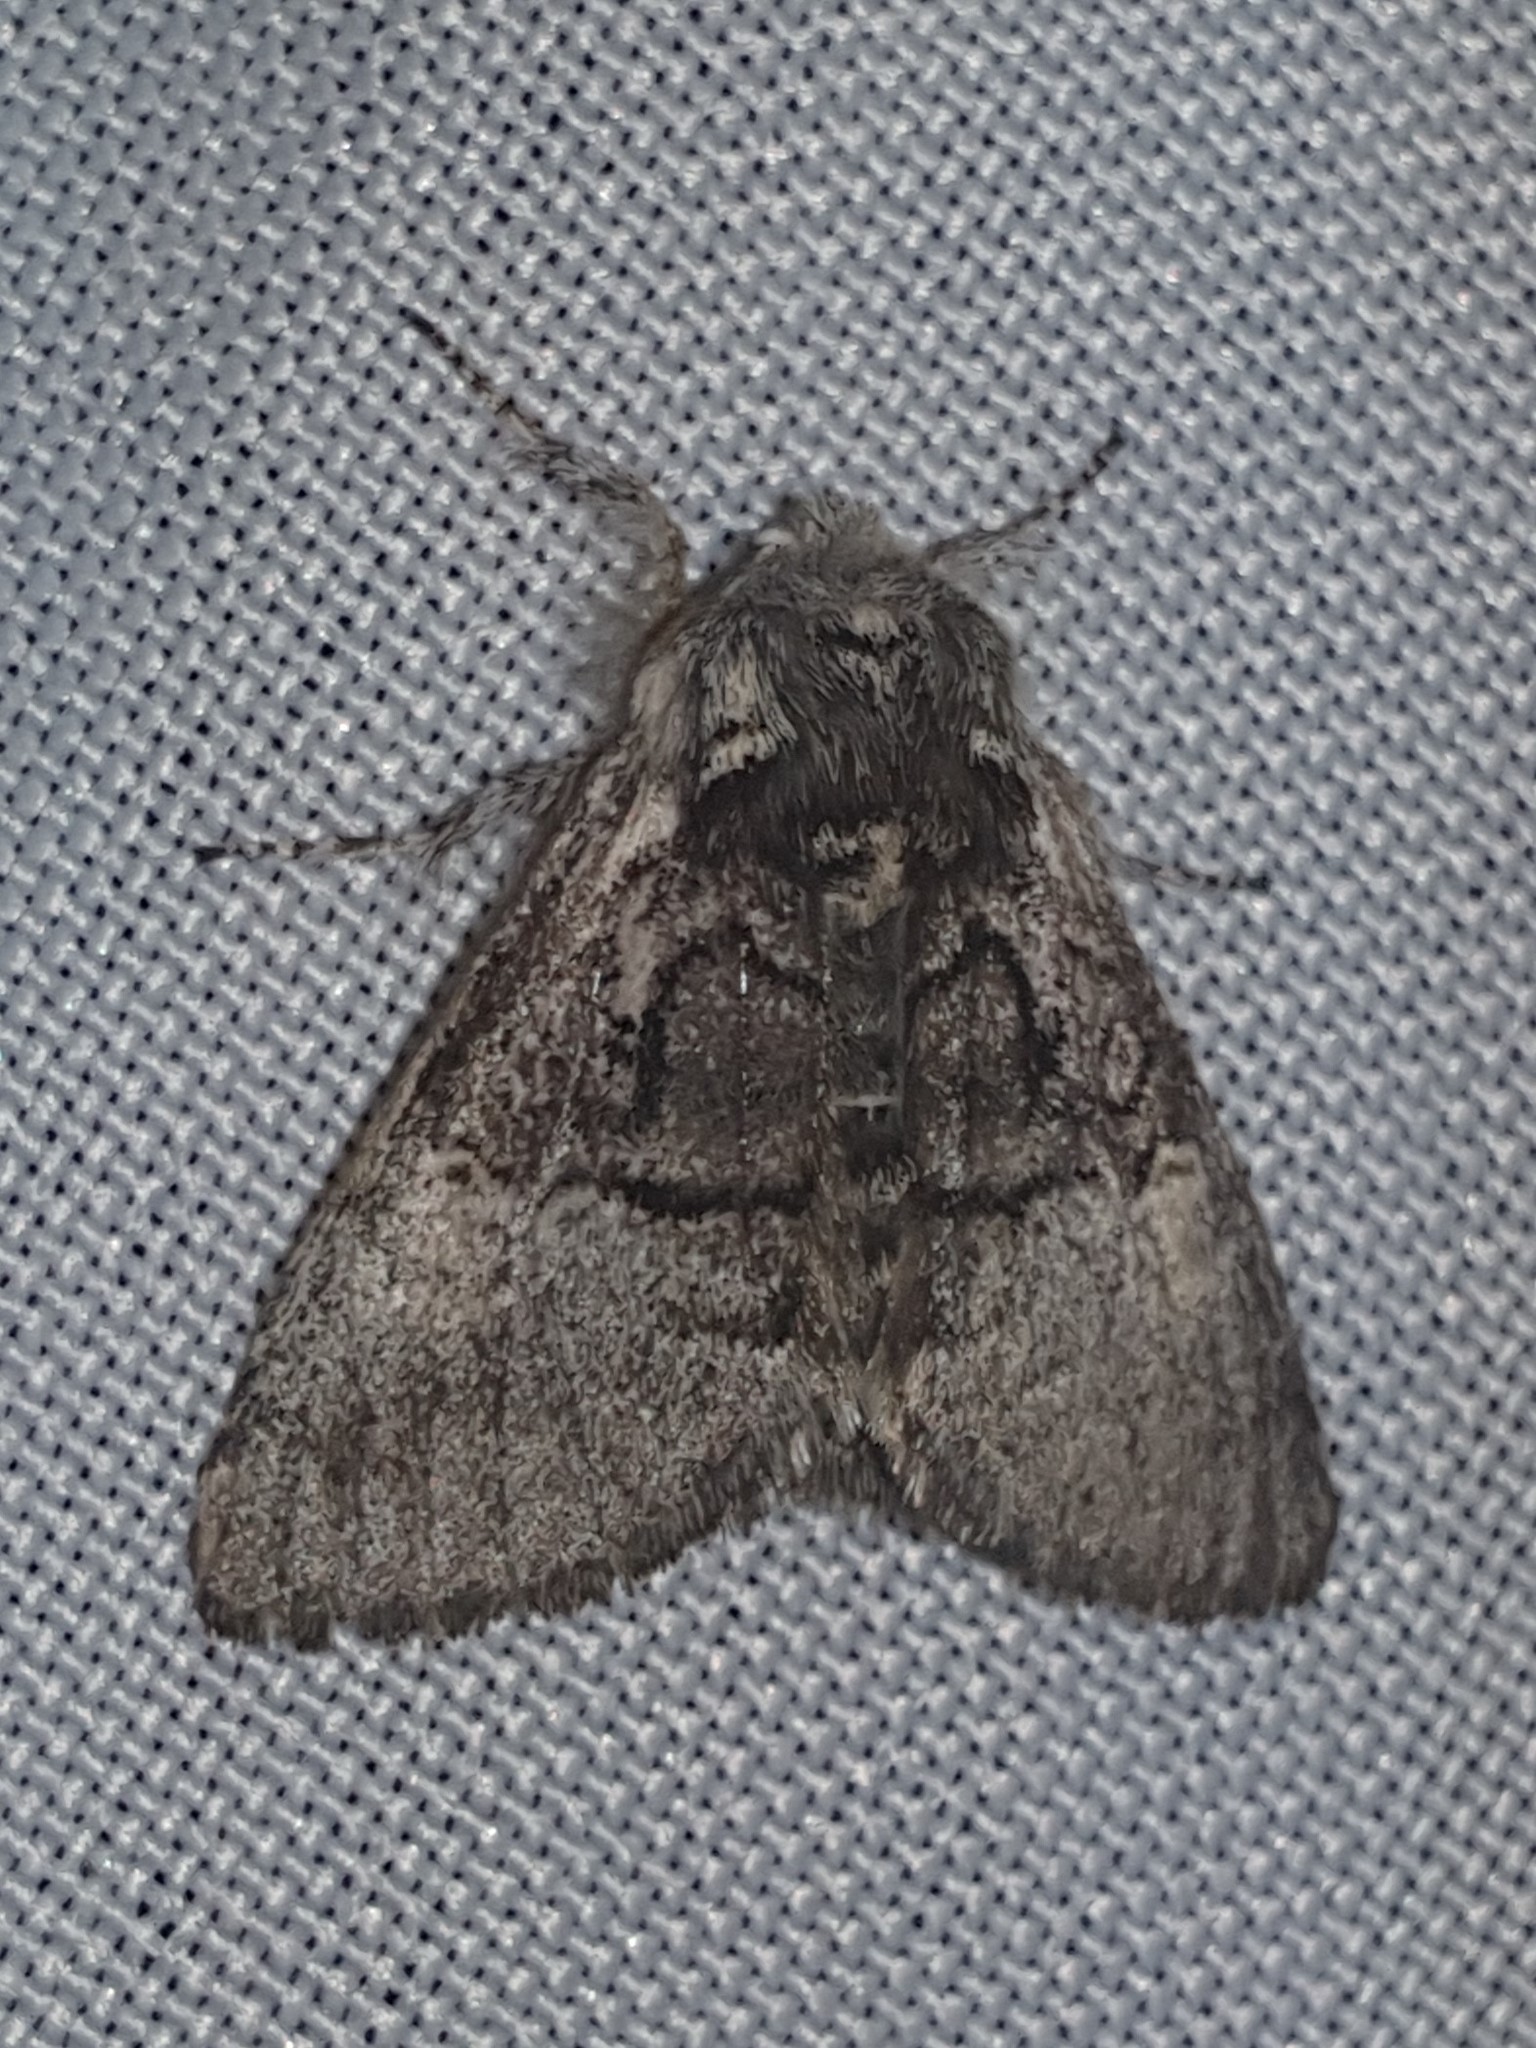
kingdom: Animalia
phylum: Arthropoda
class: Insecta
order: Lepidoptera
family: Noctuidae
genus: Colocasia
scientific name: Colocasia coryli
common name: Nut-tree tussock
